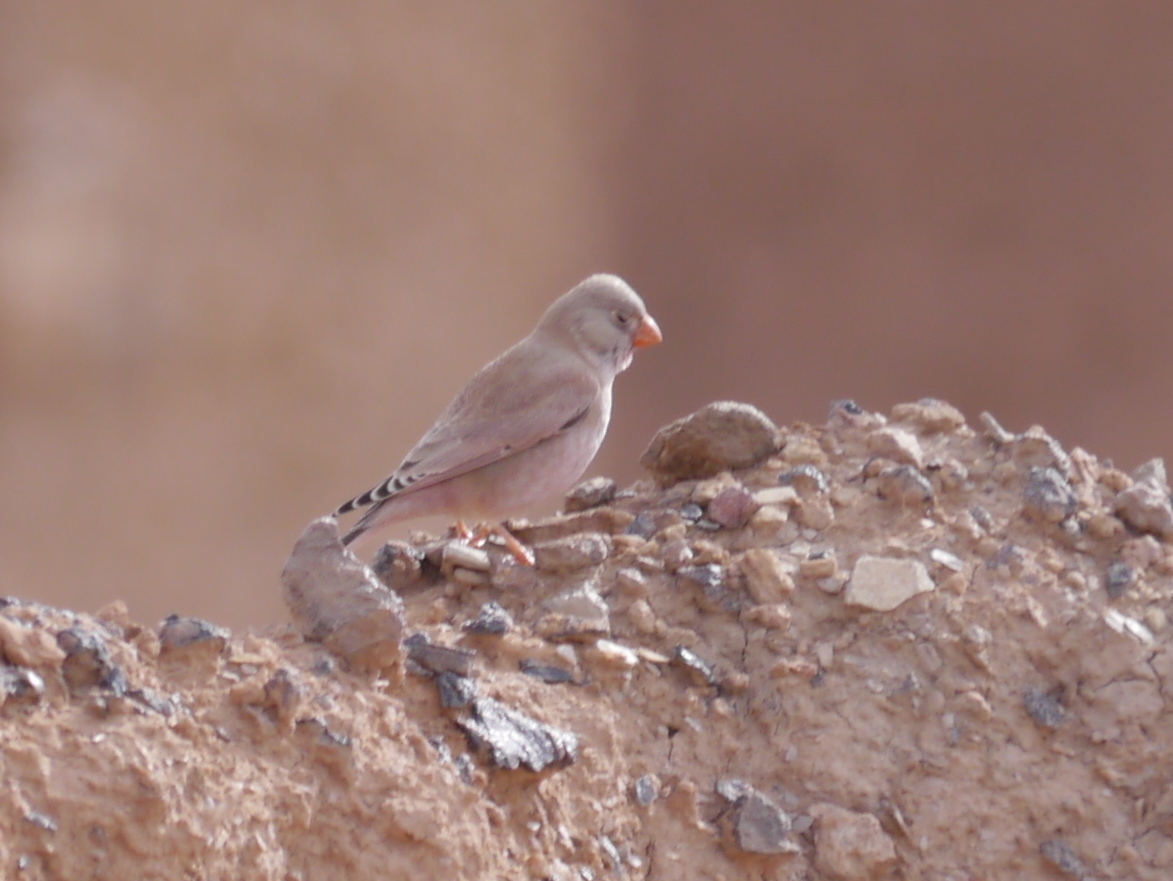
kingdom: Animalia
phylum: Chordata
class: Aves
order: Passeriformes
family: Fringillidae
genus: Bucanetes
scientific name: Bucanetes githagineus
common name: Trumpeter finch
